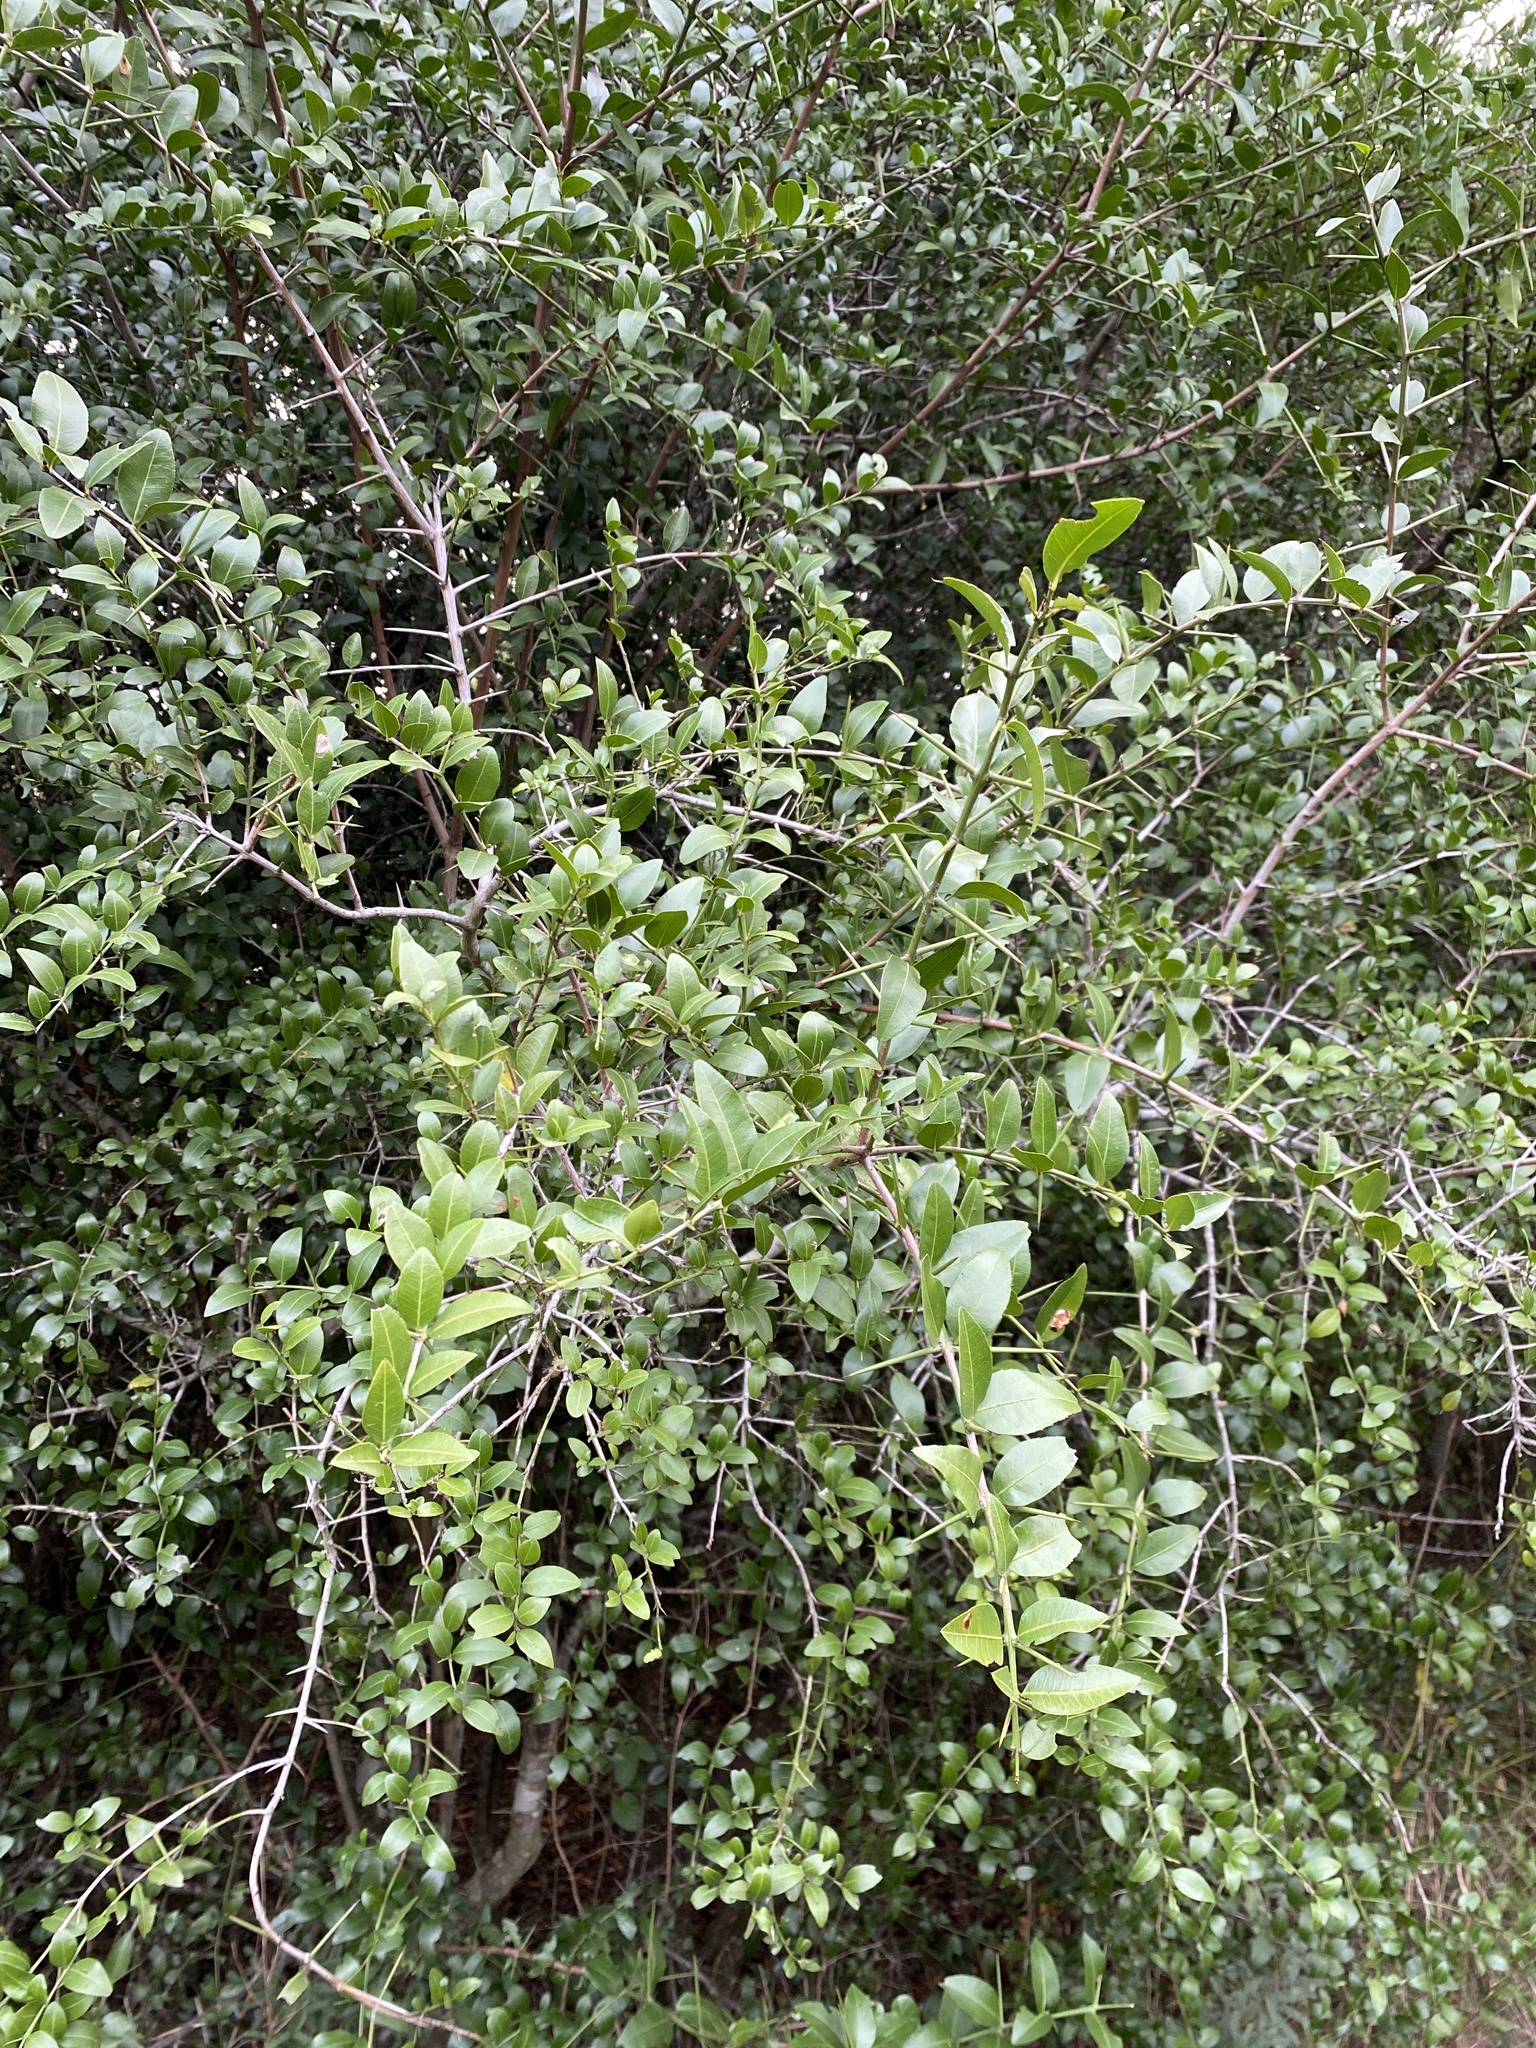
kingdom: Plantae
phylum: Tracheophyta
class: Magnoliopsida
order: Rosales
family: Rhamnaceae
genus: Scutia
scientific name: Scutia buxifolia
